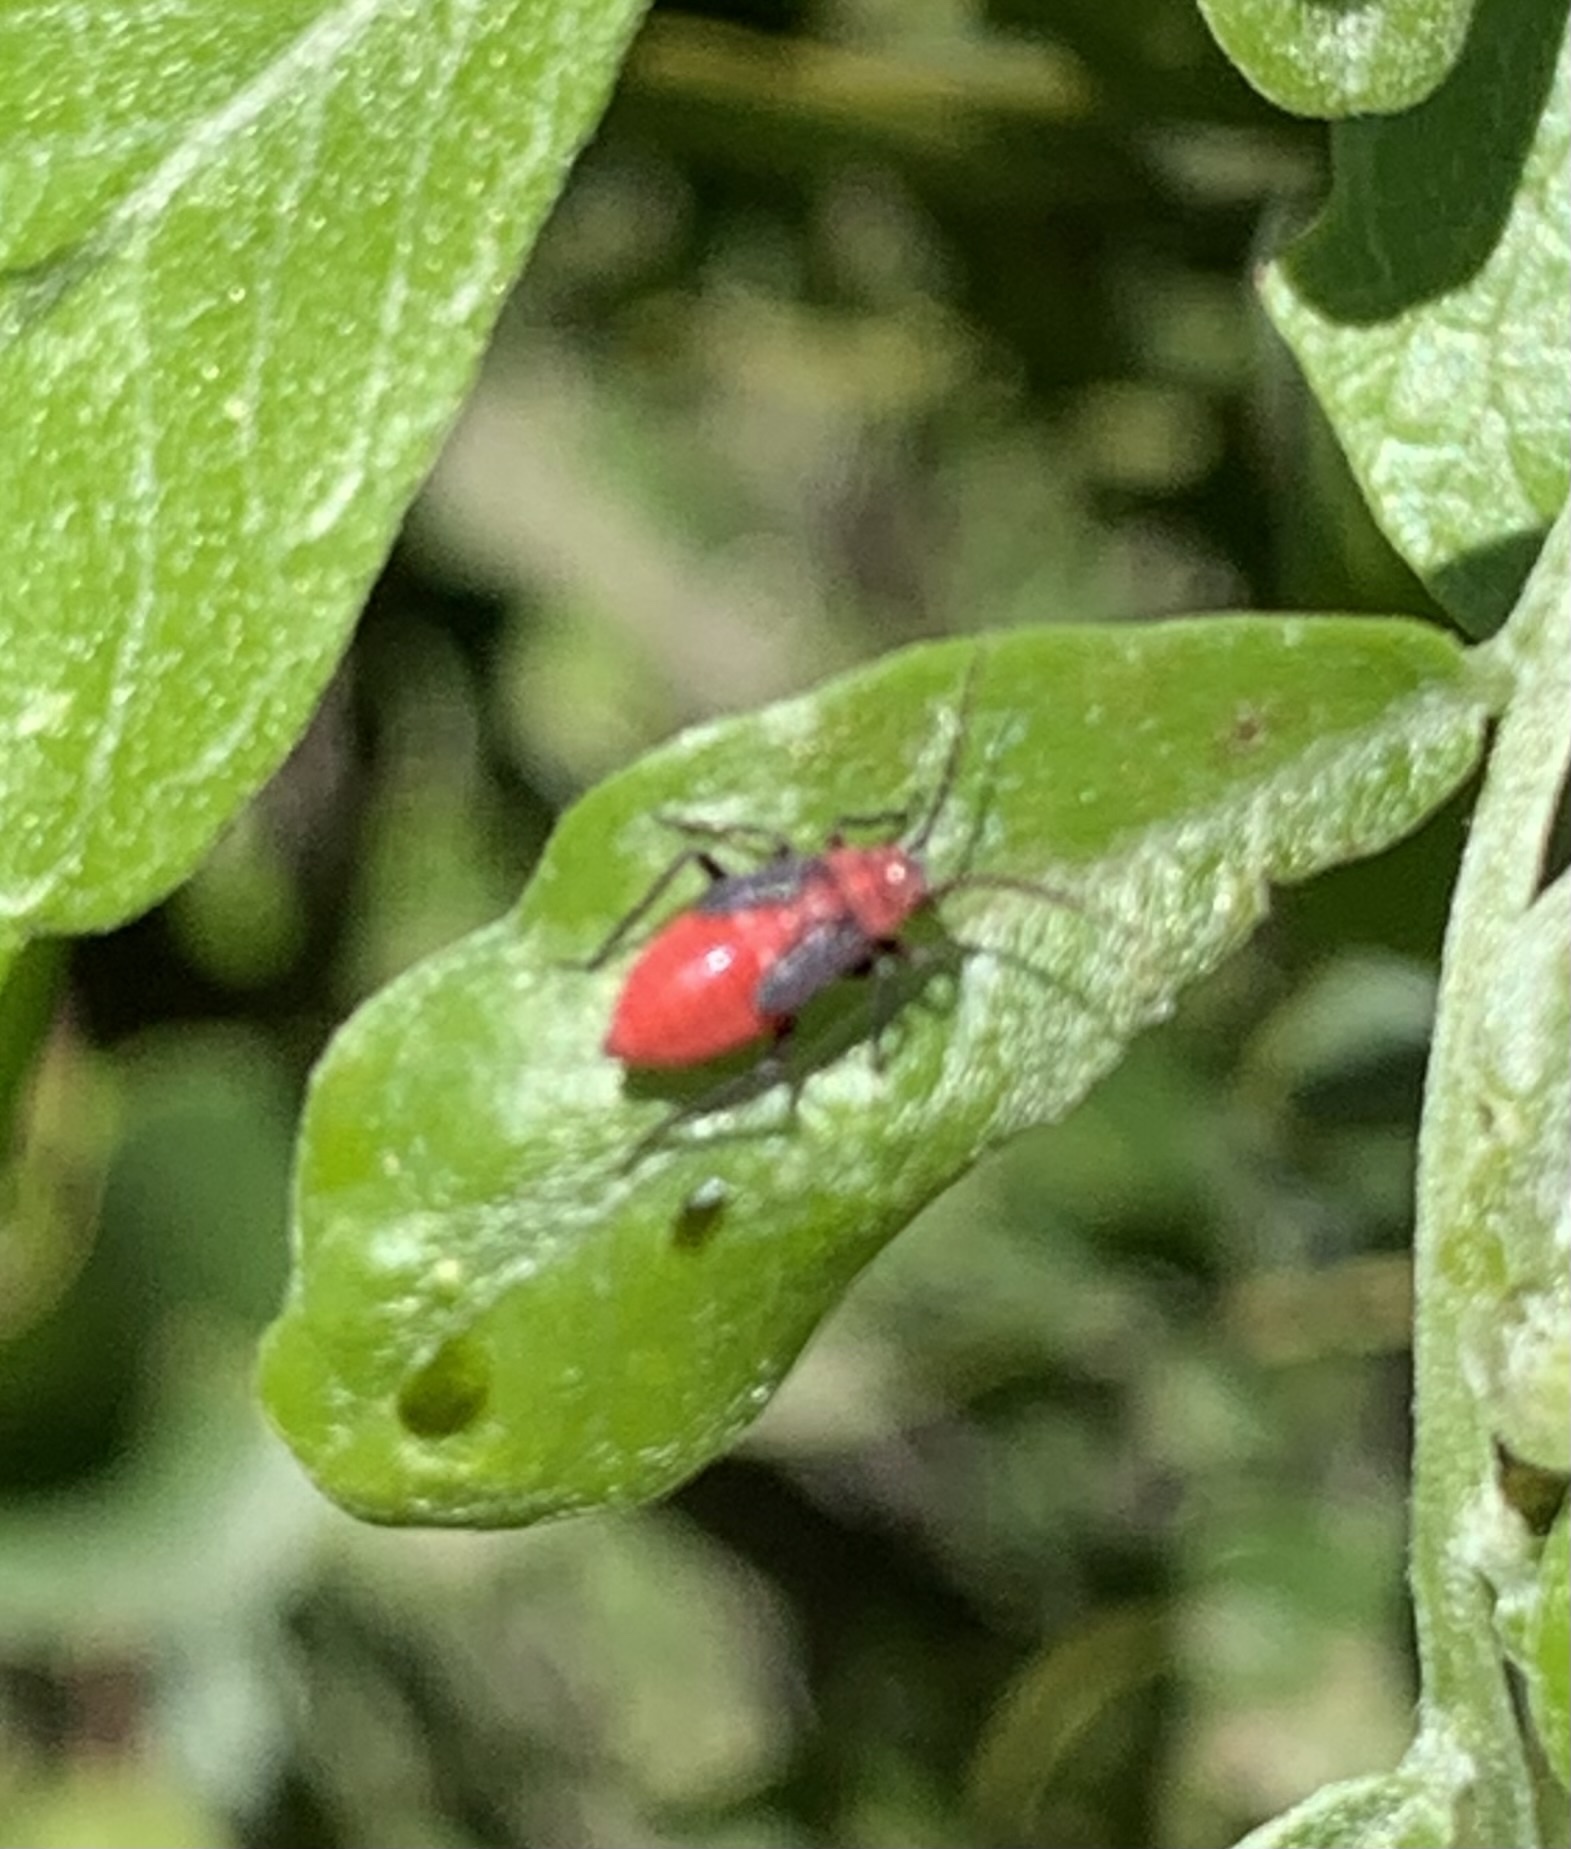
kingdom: Animalia
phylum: Arthropoda
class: Insecta
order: Hemiptera
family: Miridae
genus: Lopidea
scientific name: Lopidea major
